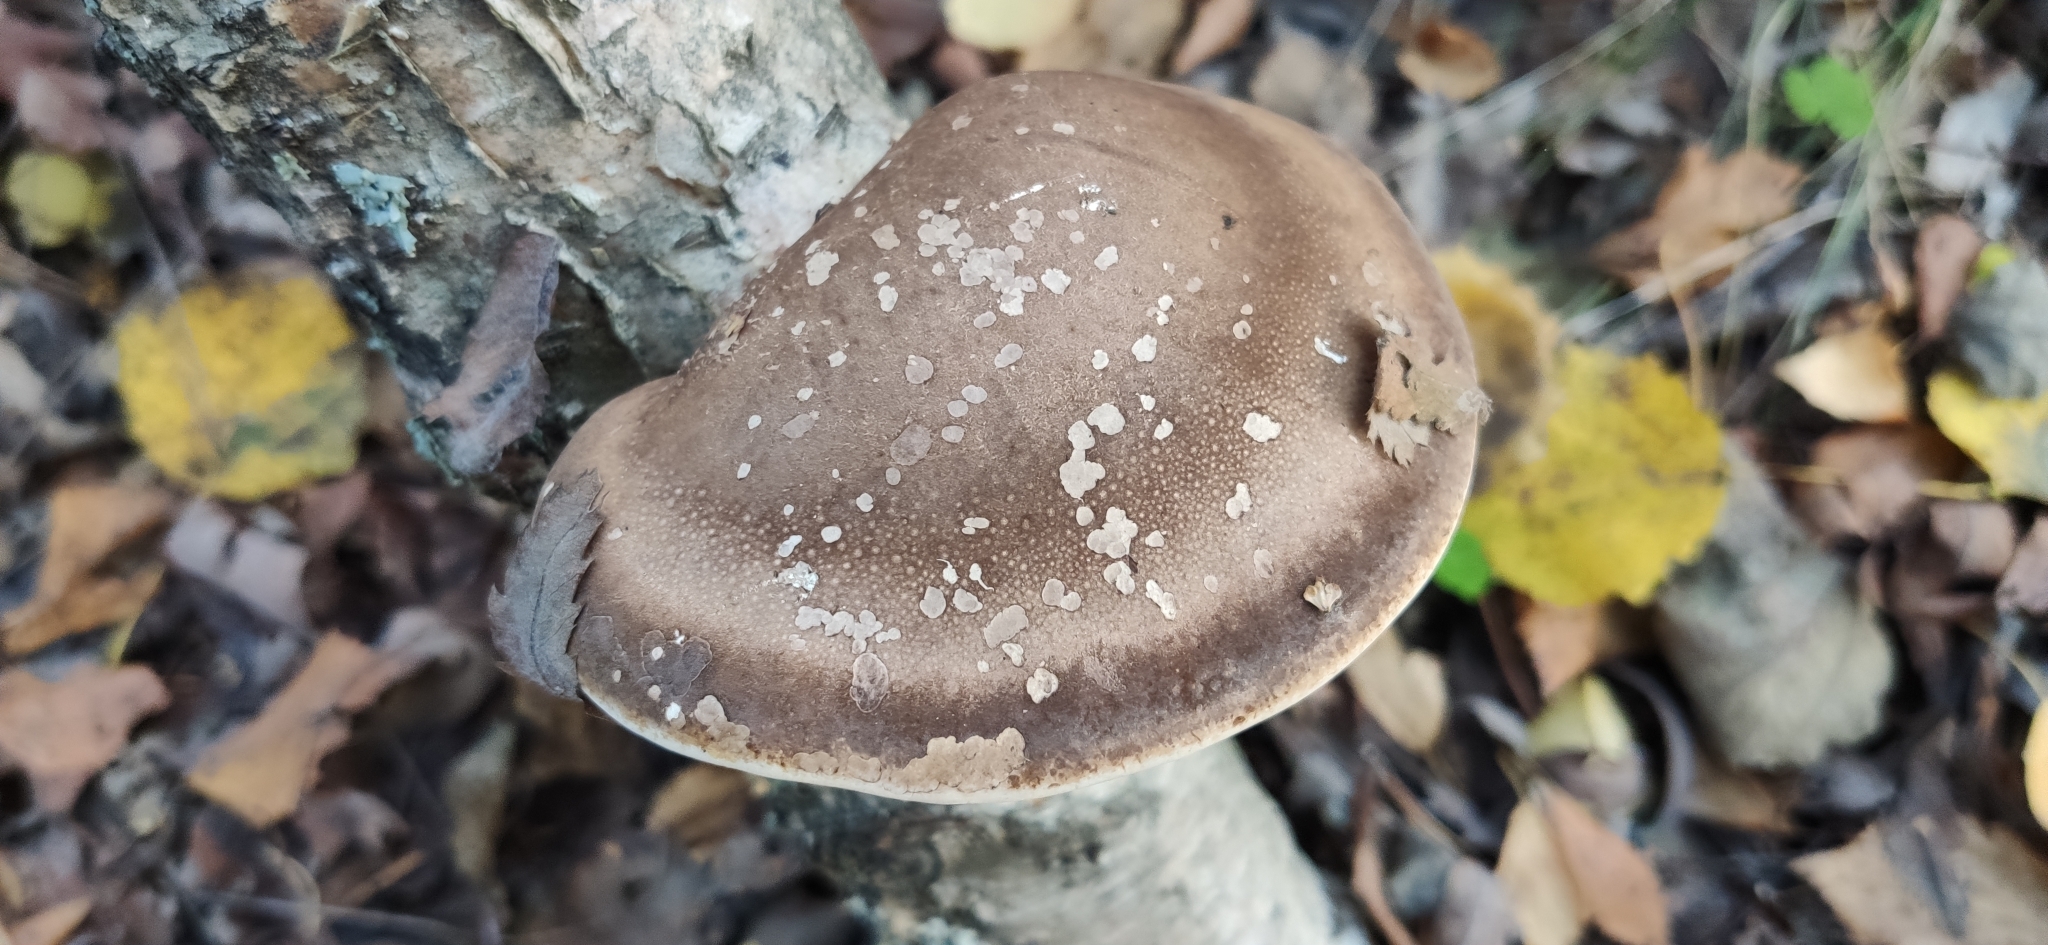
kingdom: Fungi
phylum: Basidiomycota
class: Agaricomycetes
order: Polyporales
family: Fomitopsidaceae
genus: Fomitopsis
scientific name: Fomitopsis betulina
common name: Birch polypore
